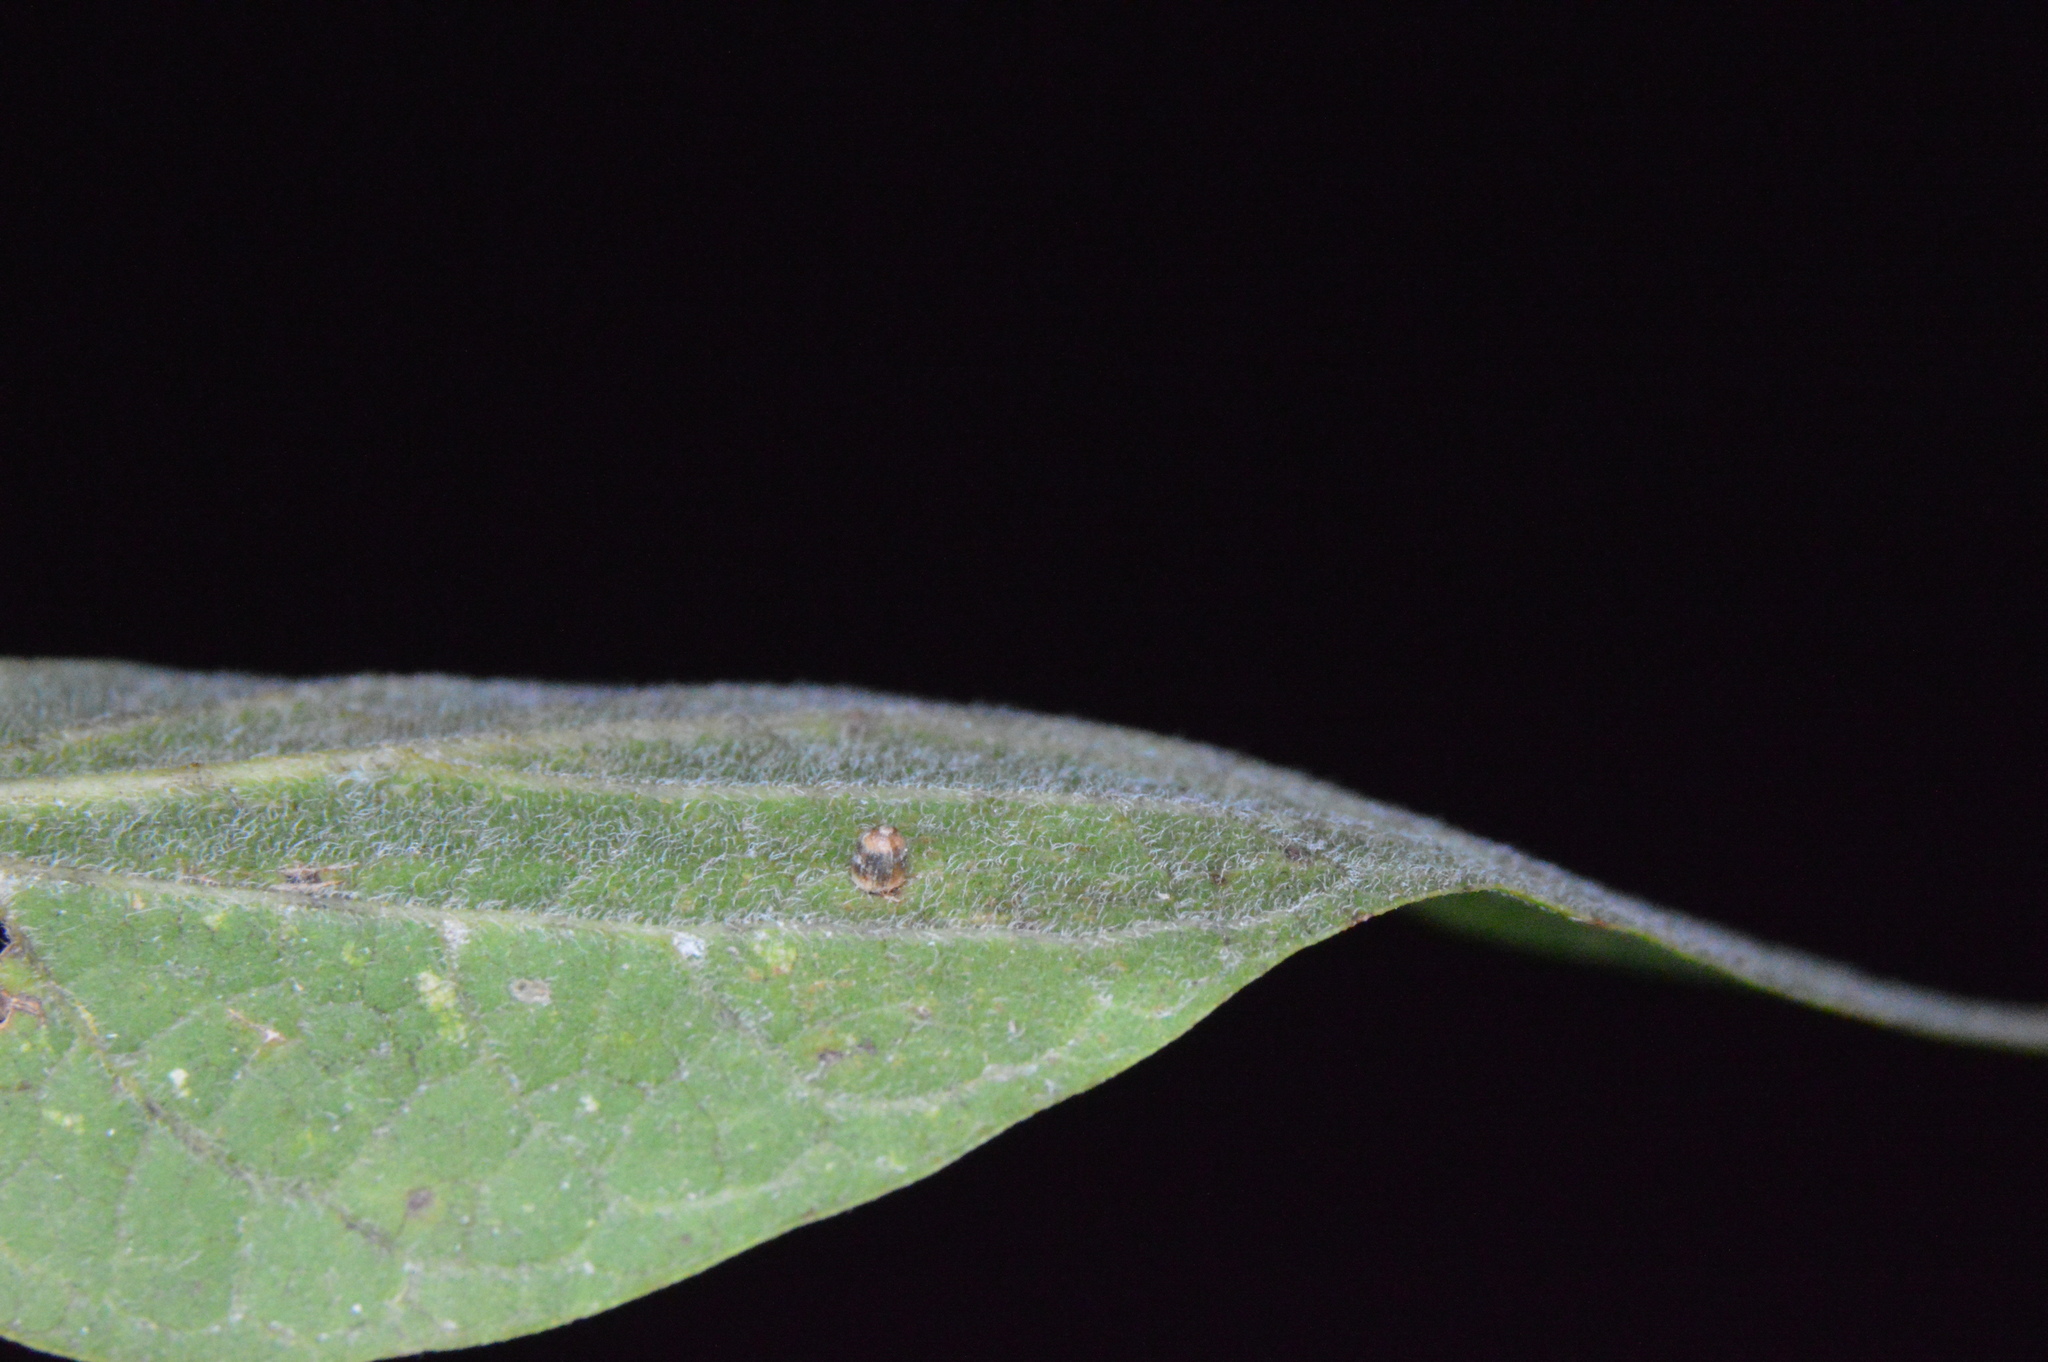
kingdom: Animalia
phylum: Arthropoda
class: Insecta
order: Diptera
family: Cecidomyiidae
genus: Celticecis
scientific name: Celticecis cupiformis
